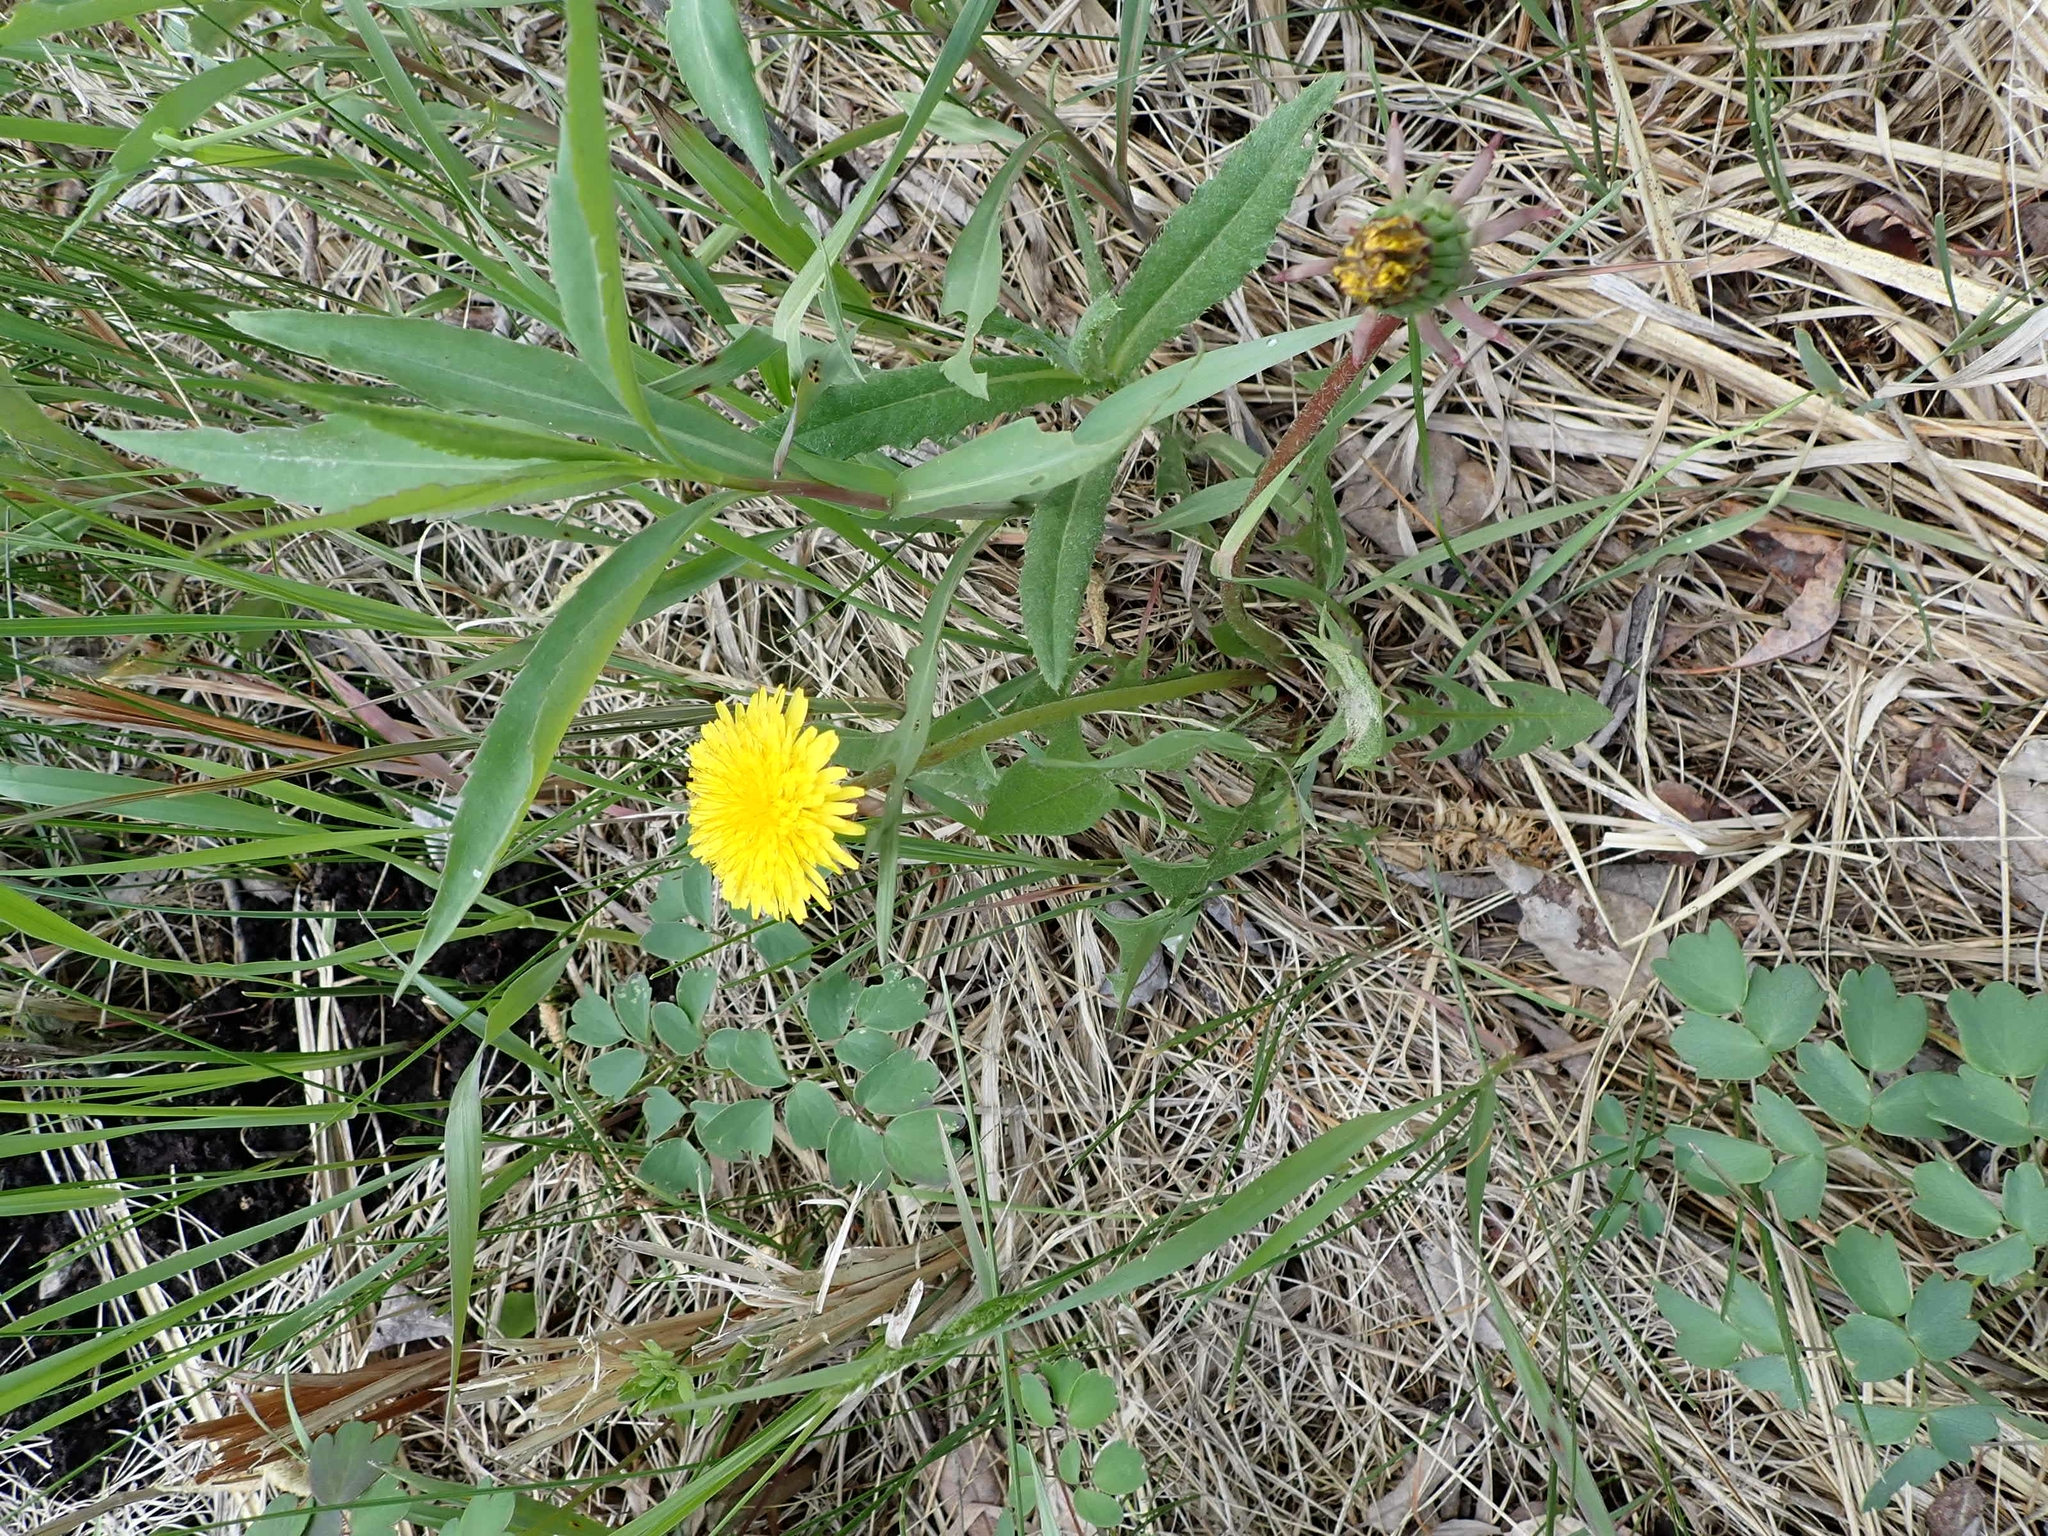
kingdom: Plantae
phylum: Tracheophyta
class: Magnoliopsida
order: Asterales
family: Asteraceae
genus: Taraxacum
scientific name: Taraxacum officinale
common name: Common dandelion
